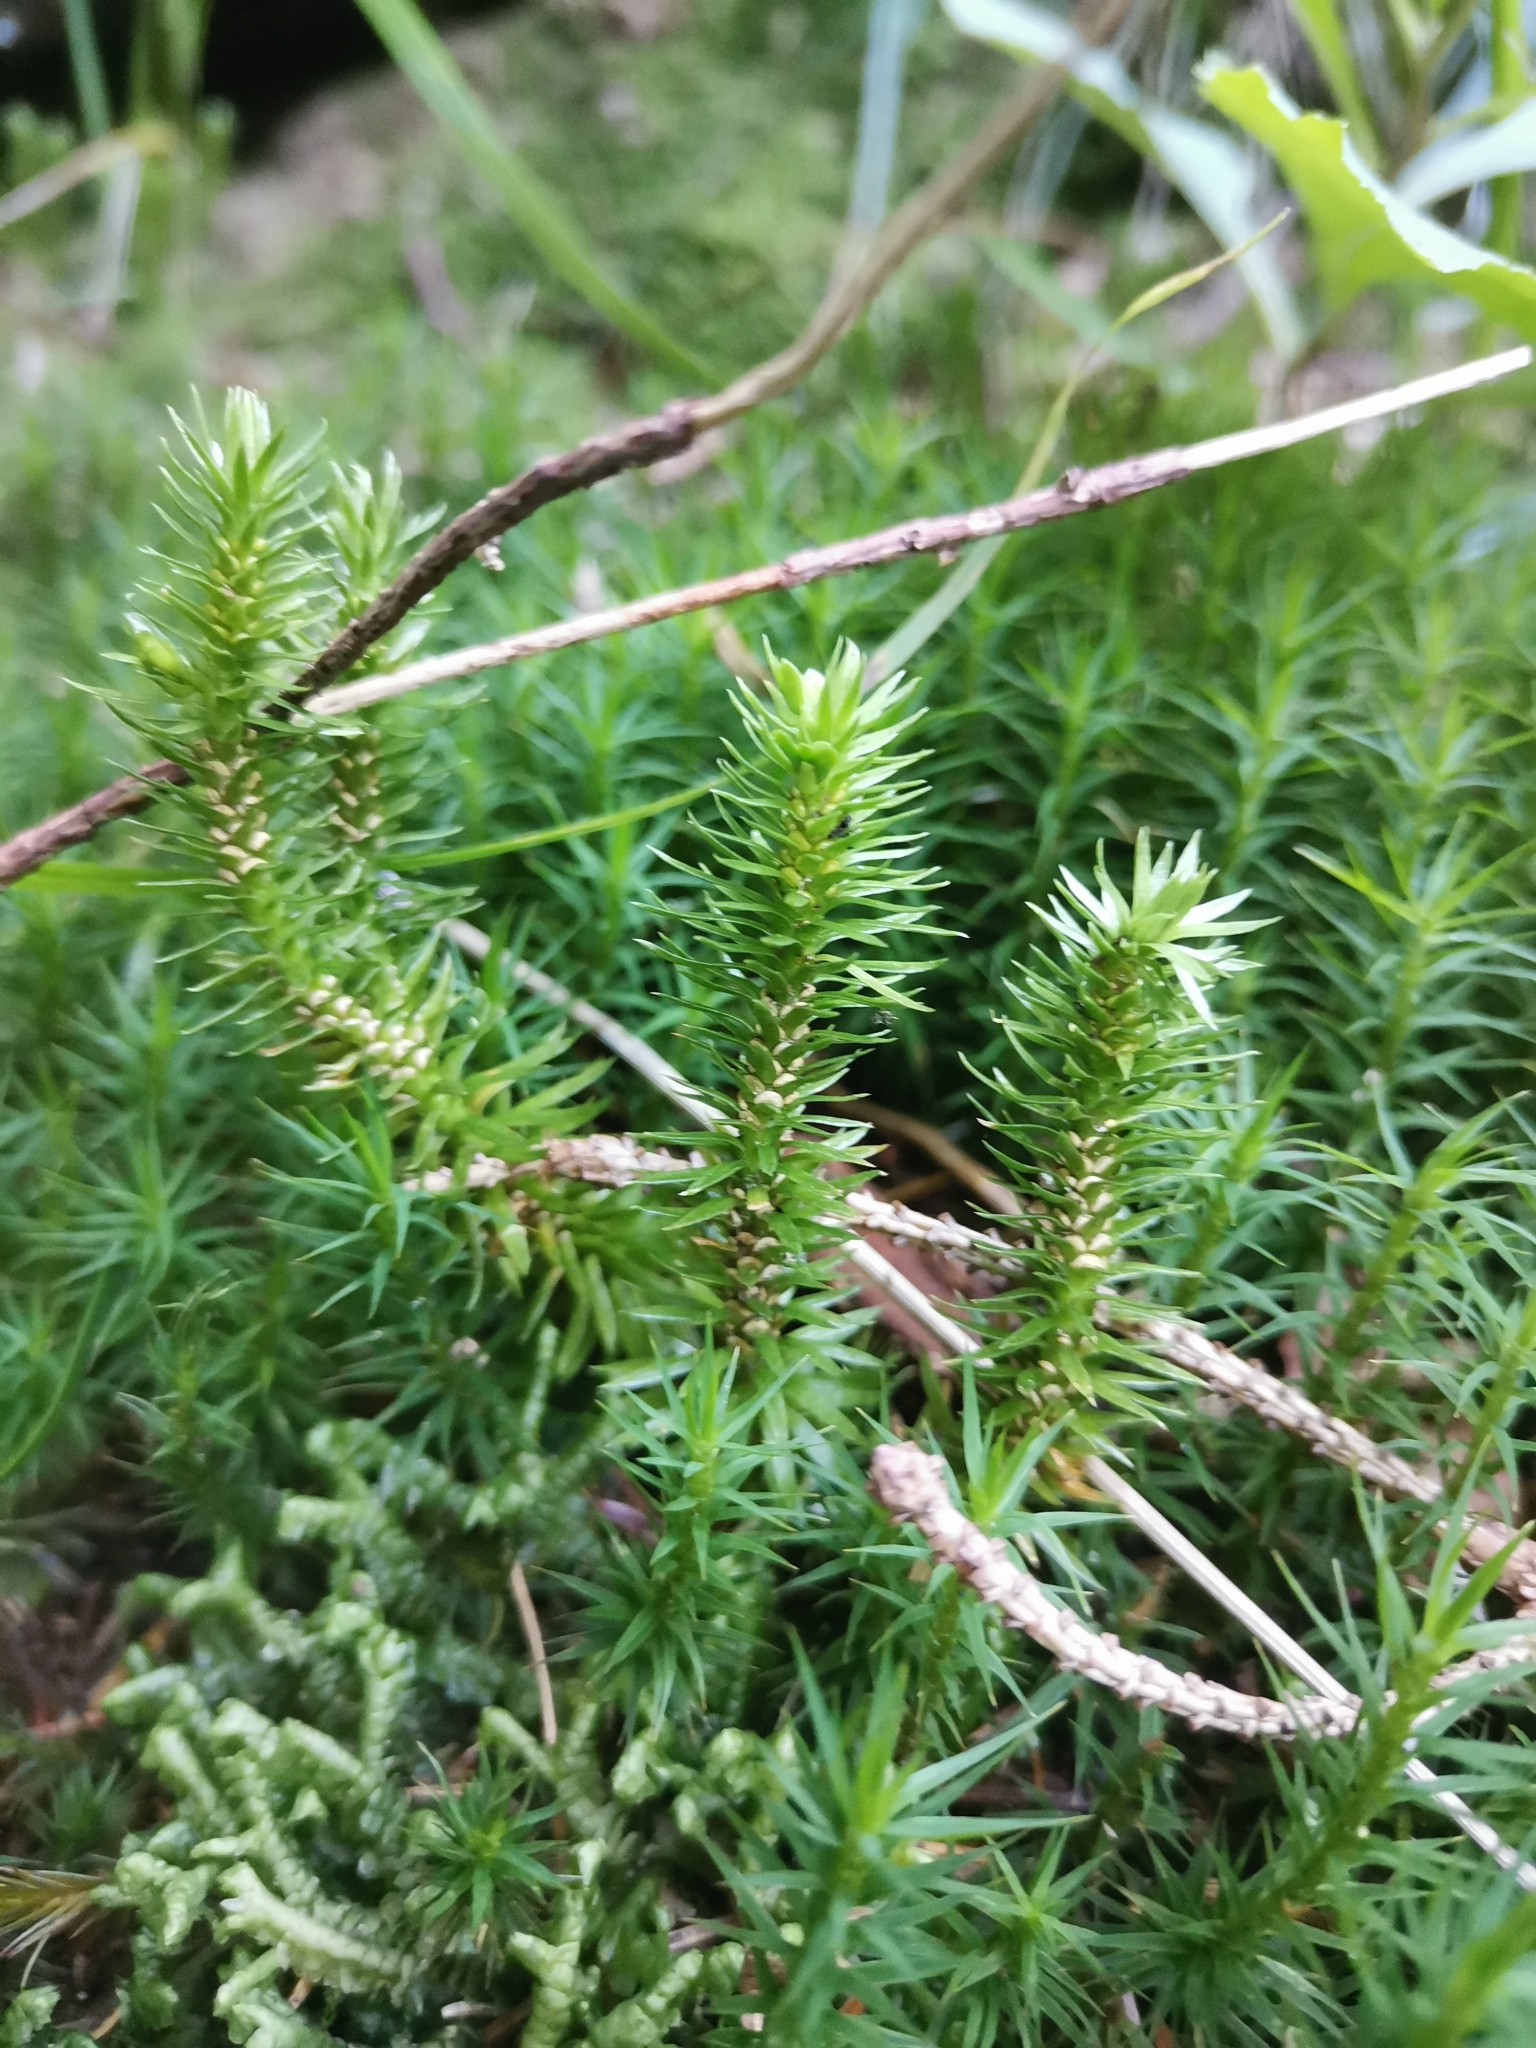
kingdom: Plantae
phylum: Tracheophyta
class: Lycopodiopsida
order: Lycopodiales
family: Lycopodiaceae
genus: Huperzia
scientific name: Huperzia selago
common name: Northern firmoss
